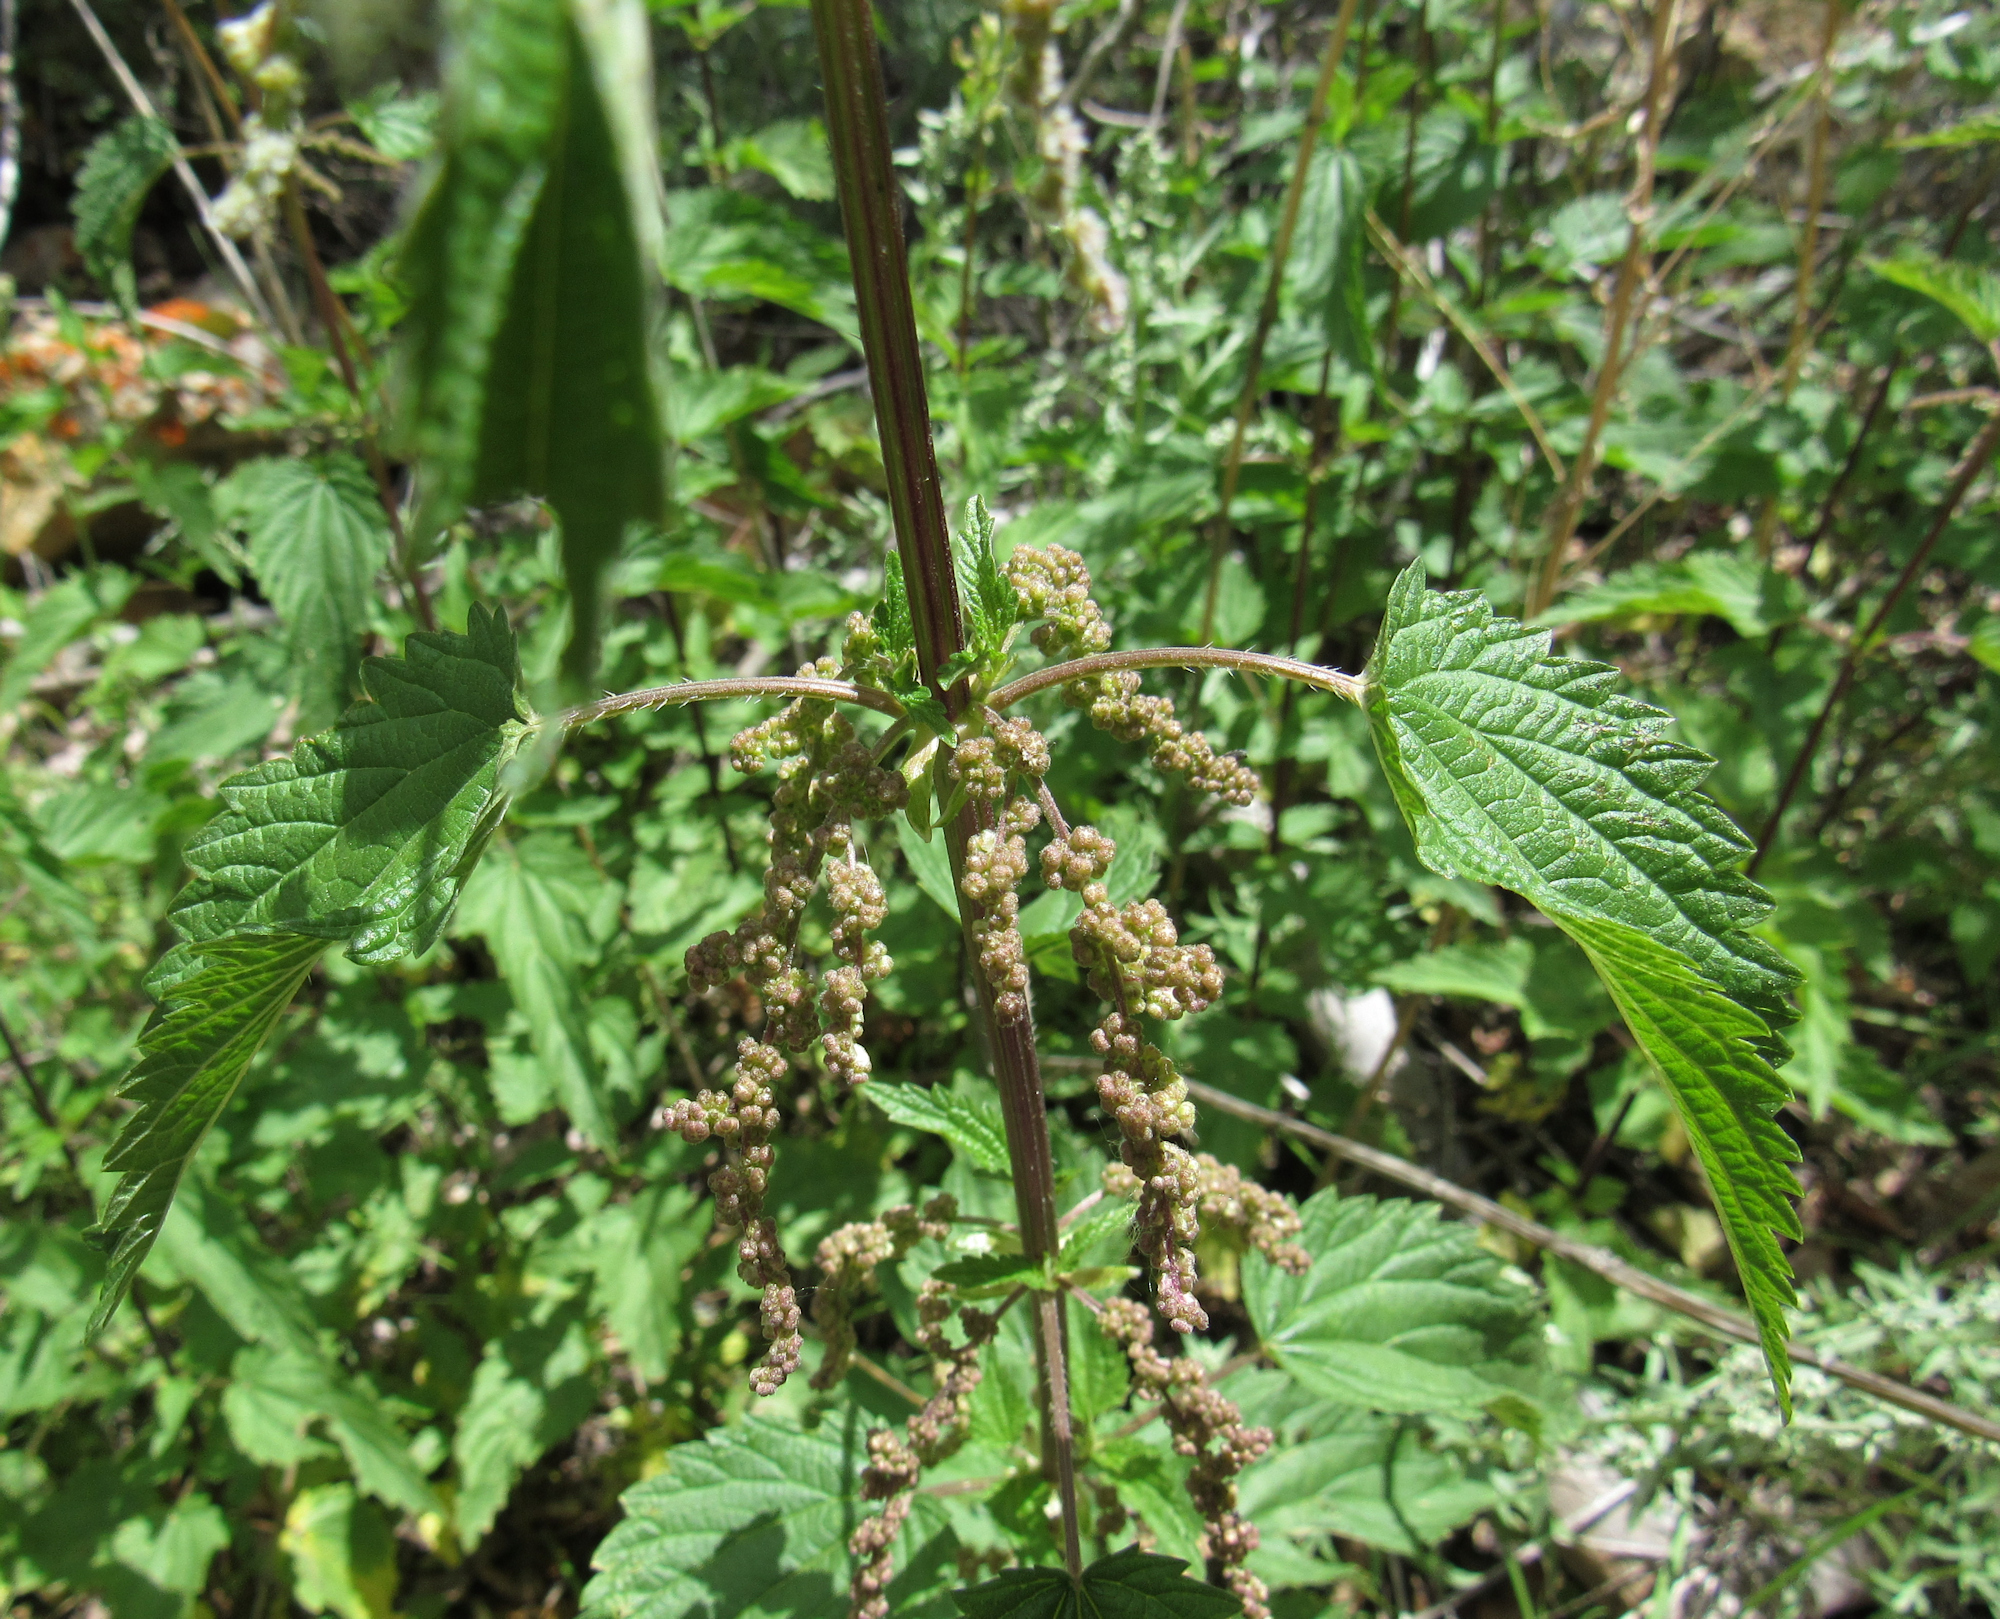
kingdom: Plantae
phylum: Tracheophyta
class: Magnoliopsida
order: Rosales
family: Urticaceae
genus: Urtica
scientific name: Urtica gracilis
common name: Slender stinging nettle
